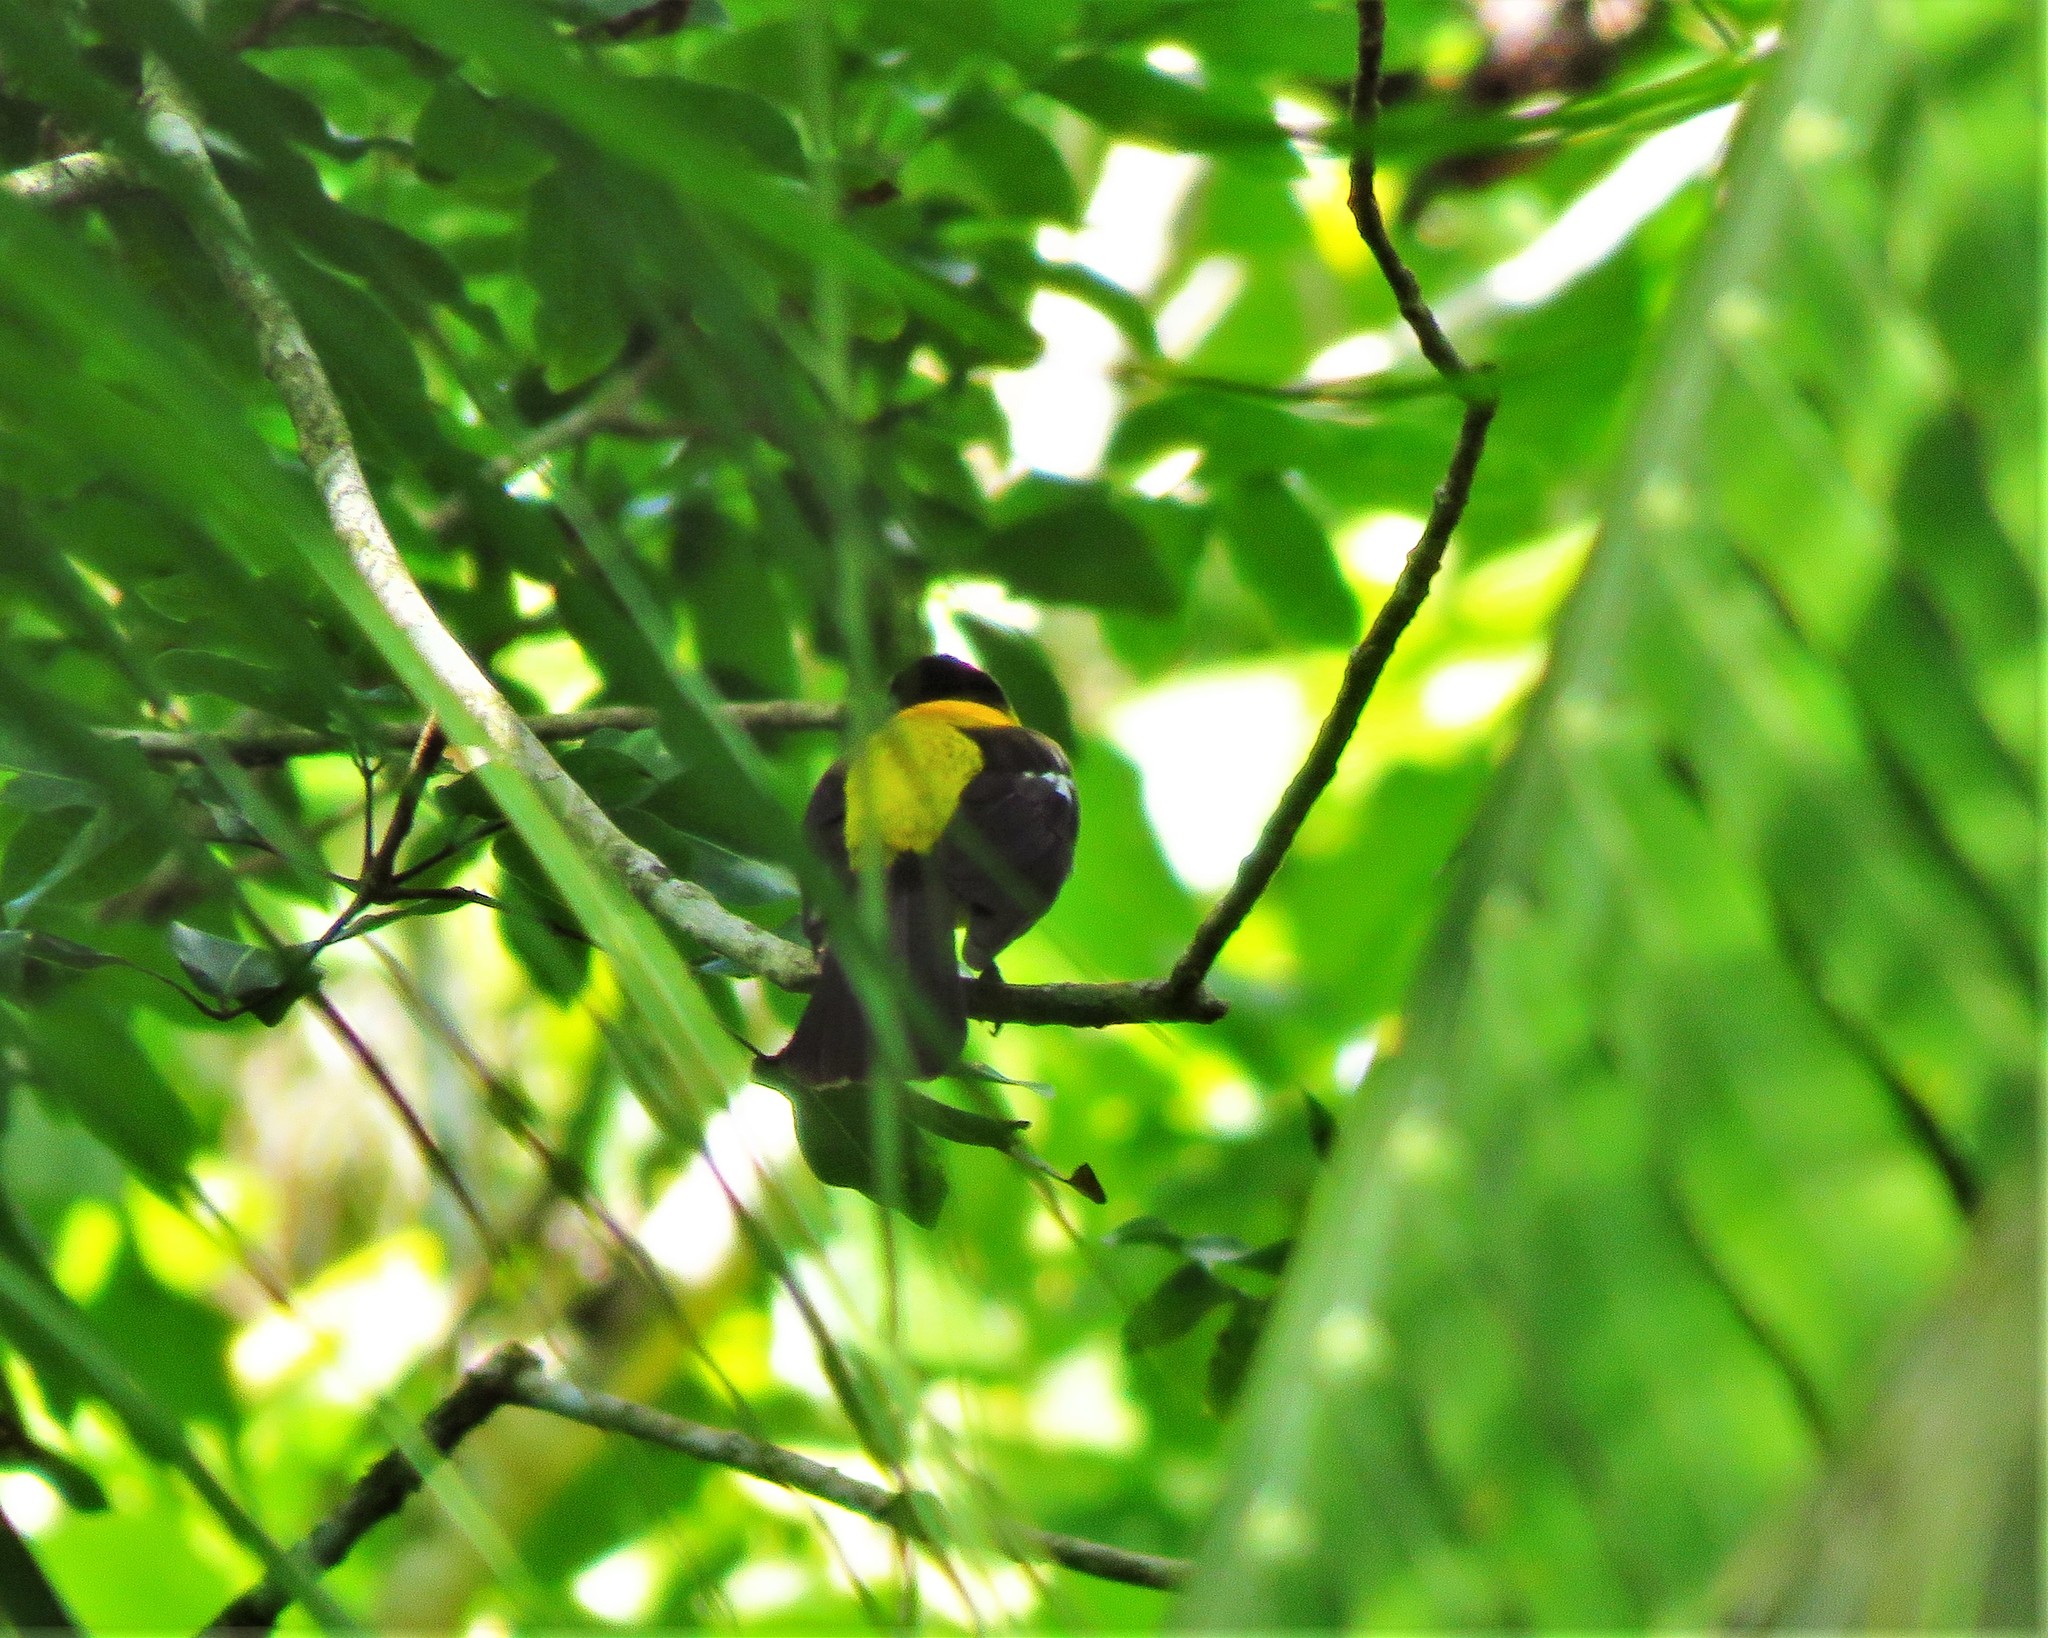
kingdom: Animalia
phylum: Chordata
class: Aves
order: Passeriformes
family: Thraupidae
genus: Lanio
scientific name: Lanio aurantius
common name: Black-throated shrike-tanager
